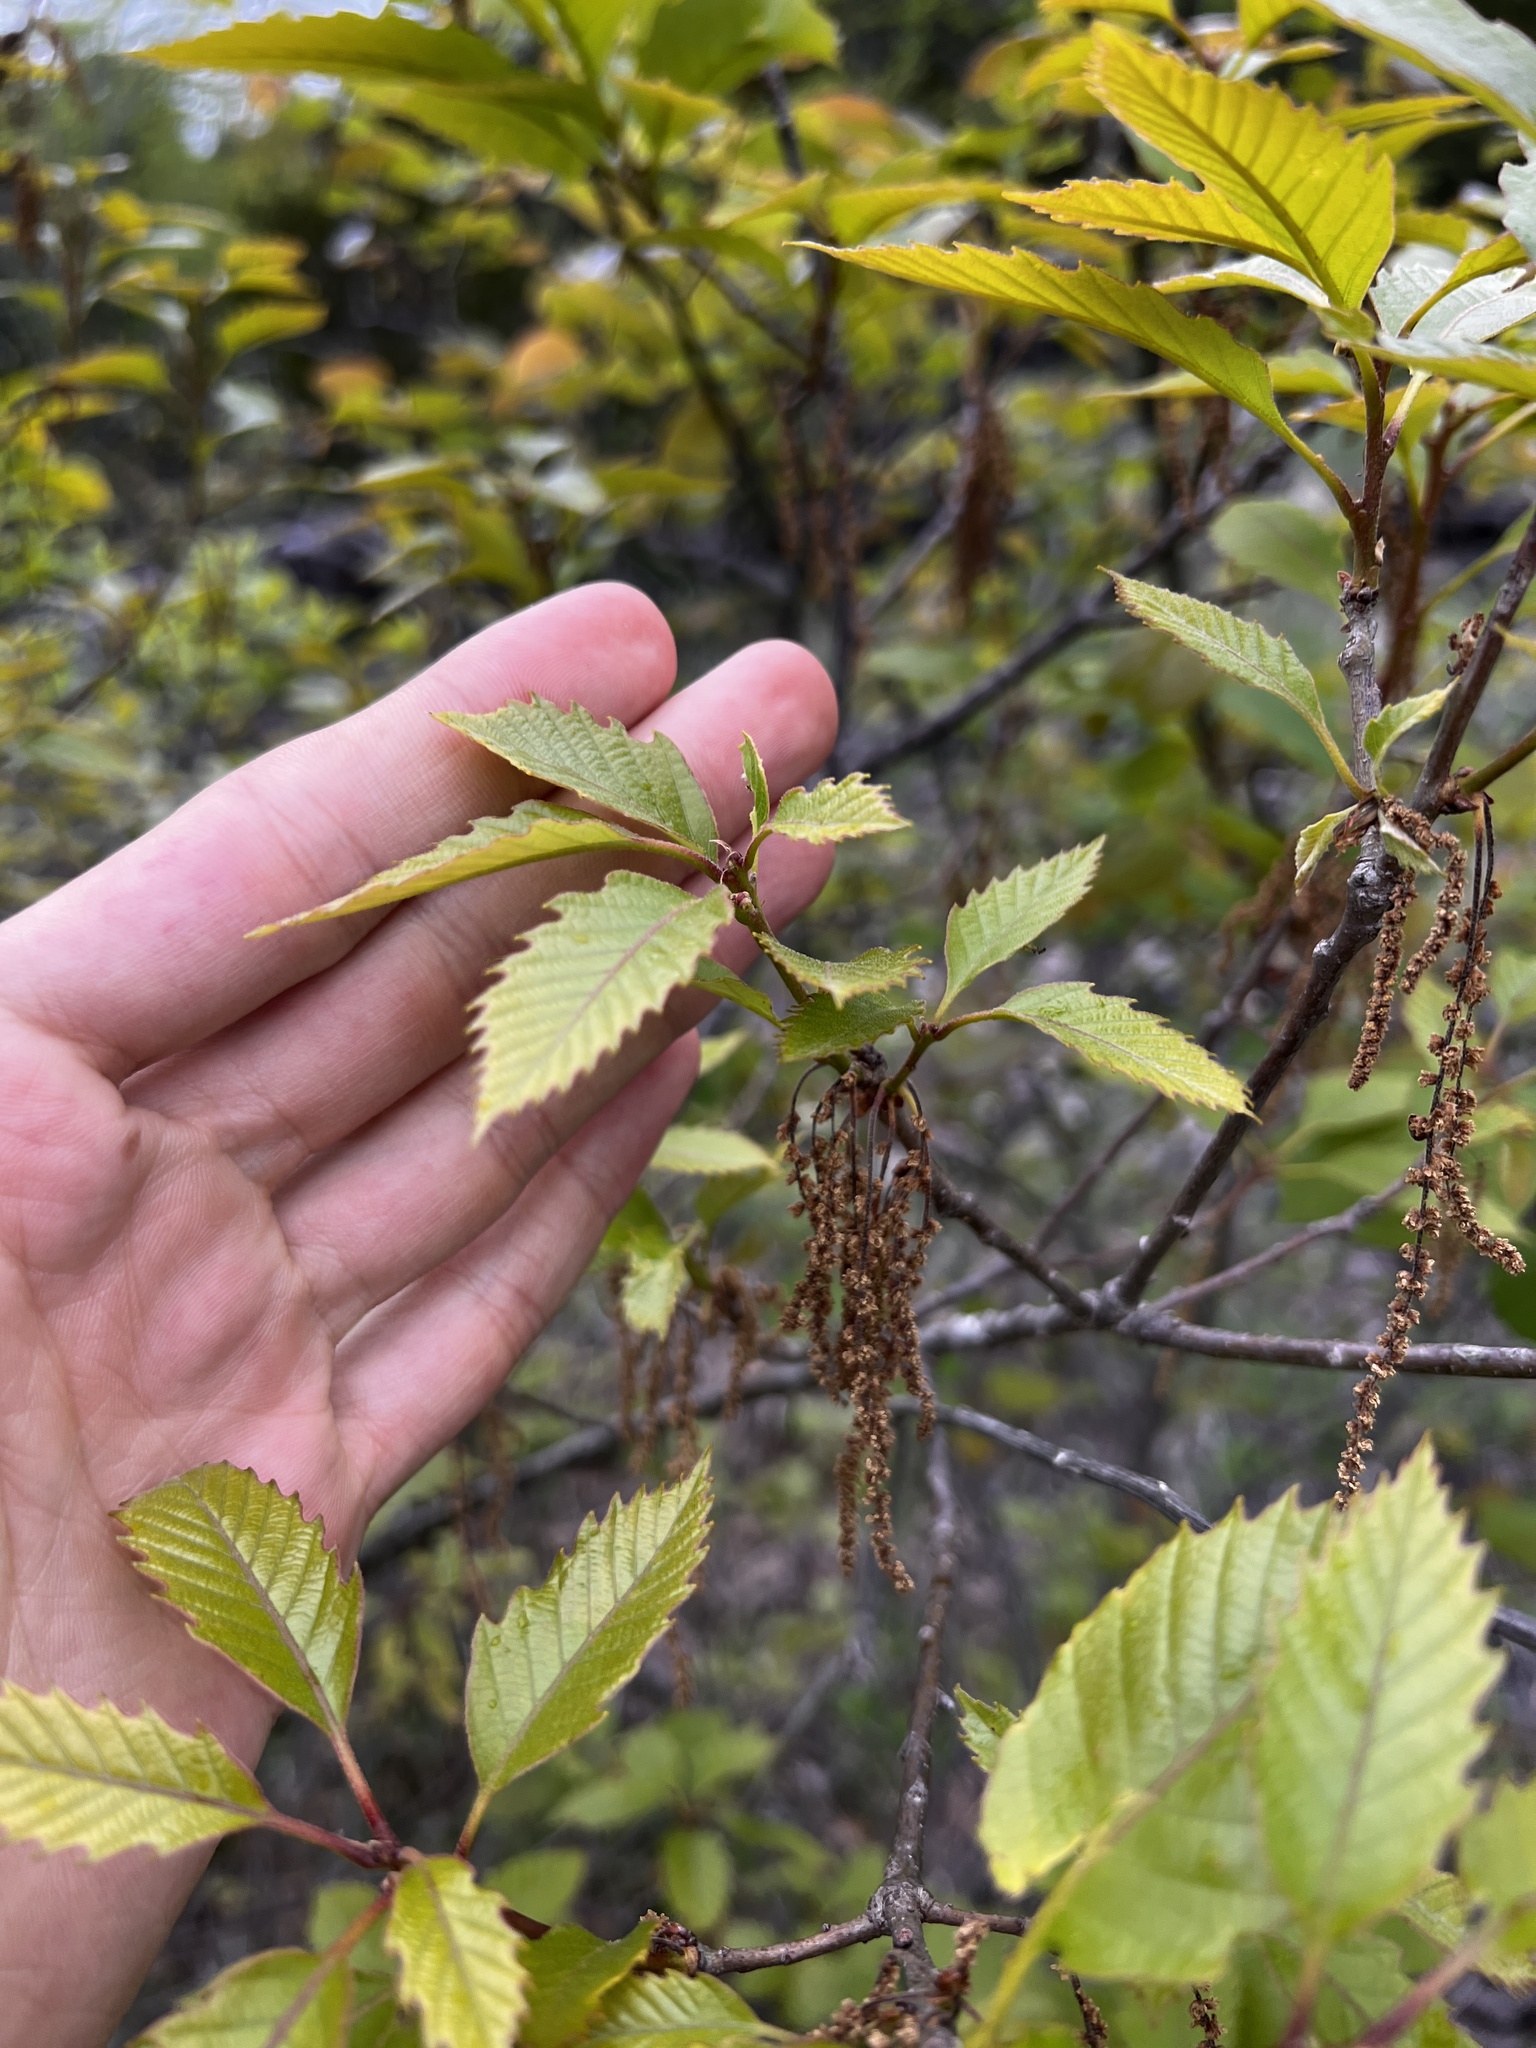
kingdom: Plantae
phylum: Tracheophyta
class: Magnoliopsida
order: Fagales
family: Fagaceae
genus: Quercus
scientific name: Quercus prinoides
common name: Dwarf chinkapin oak
